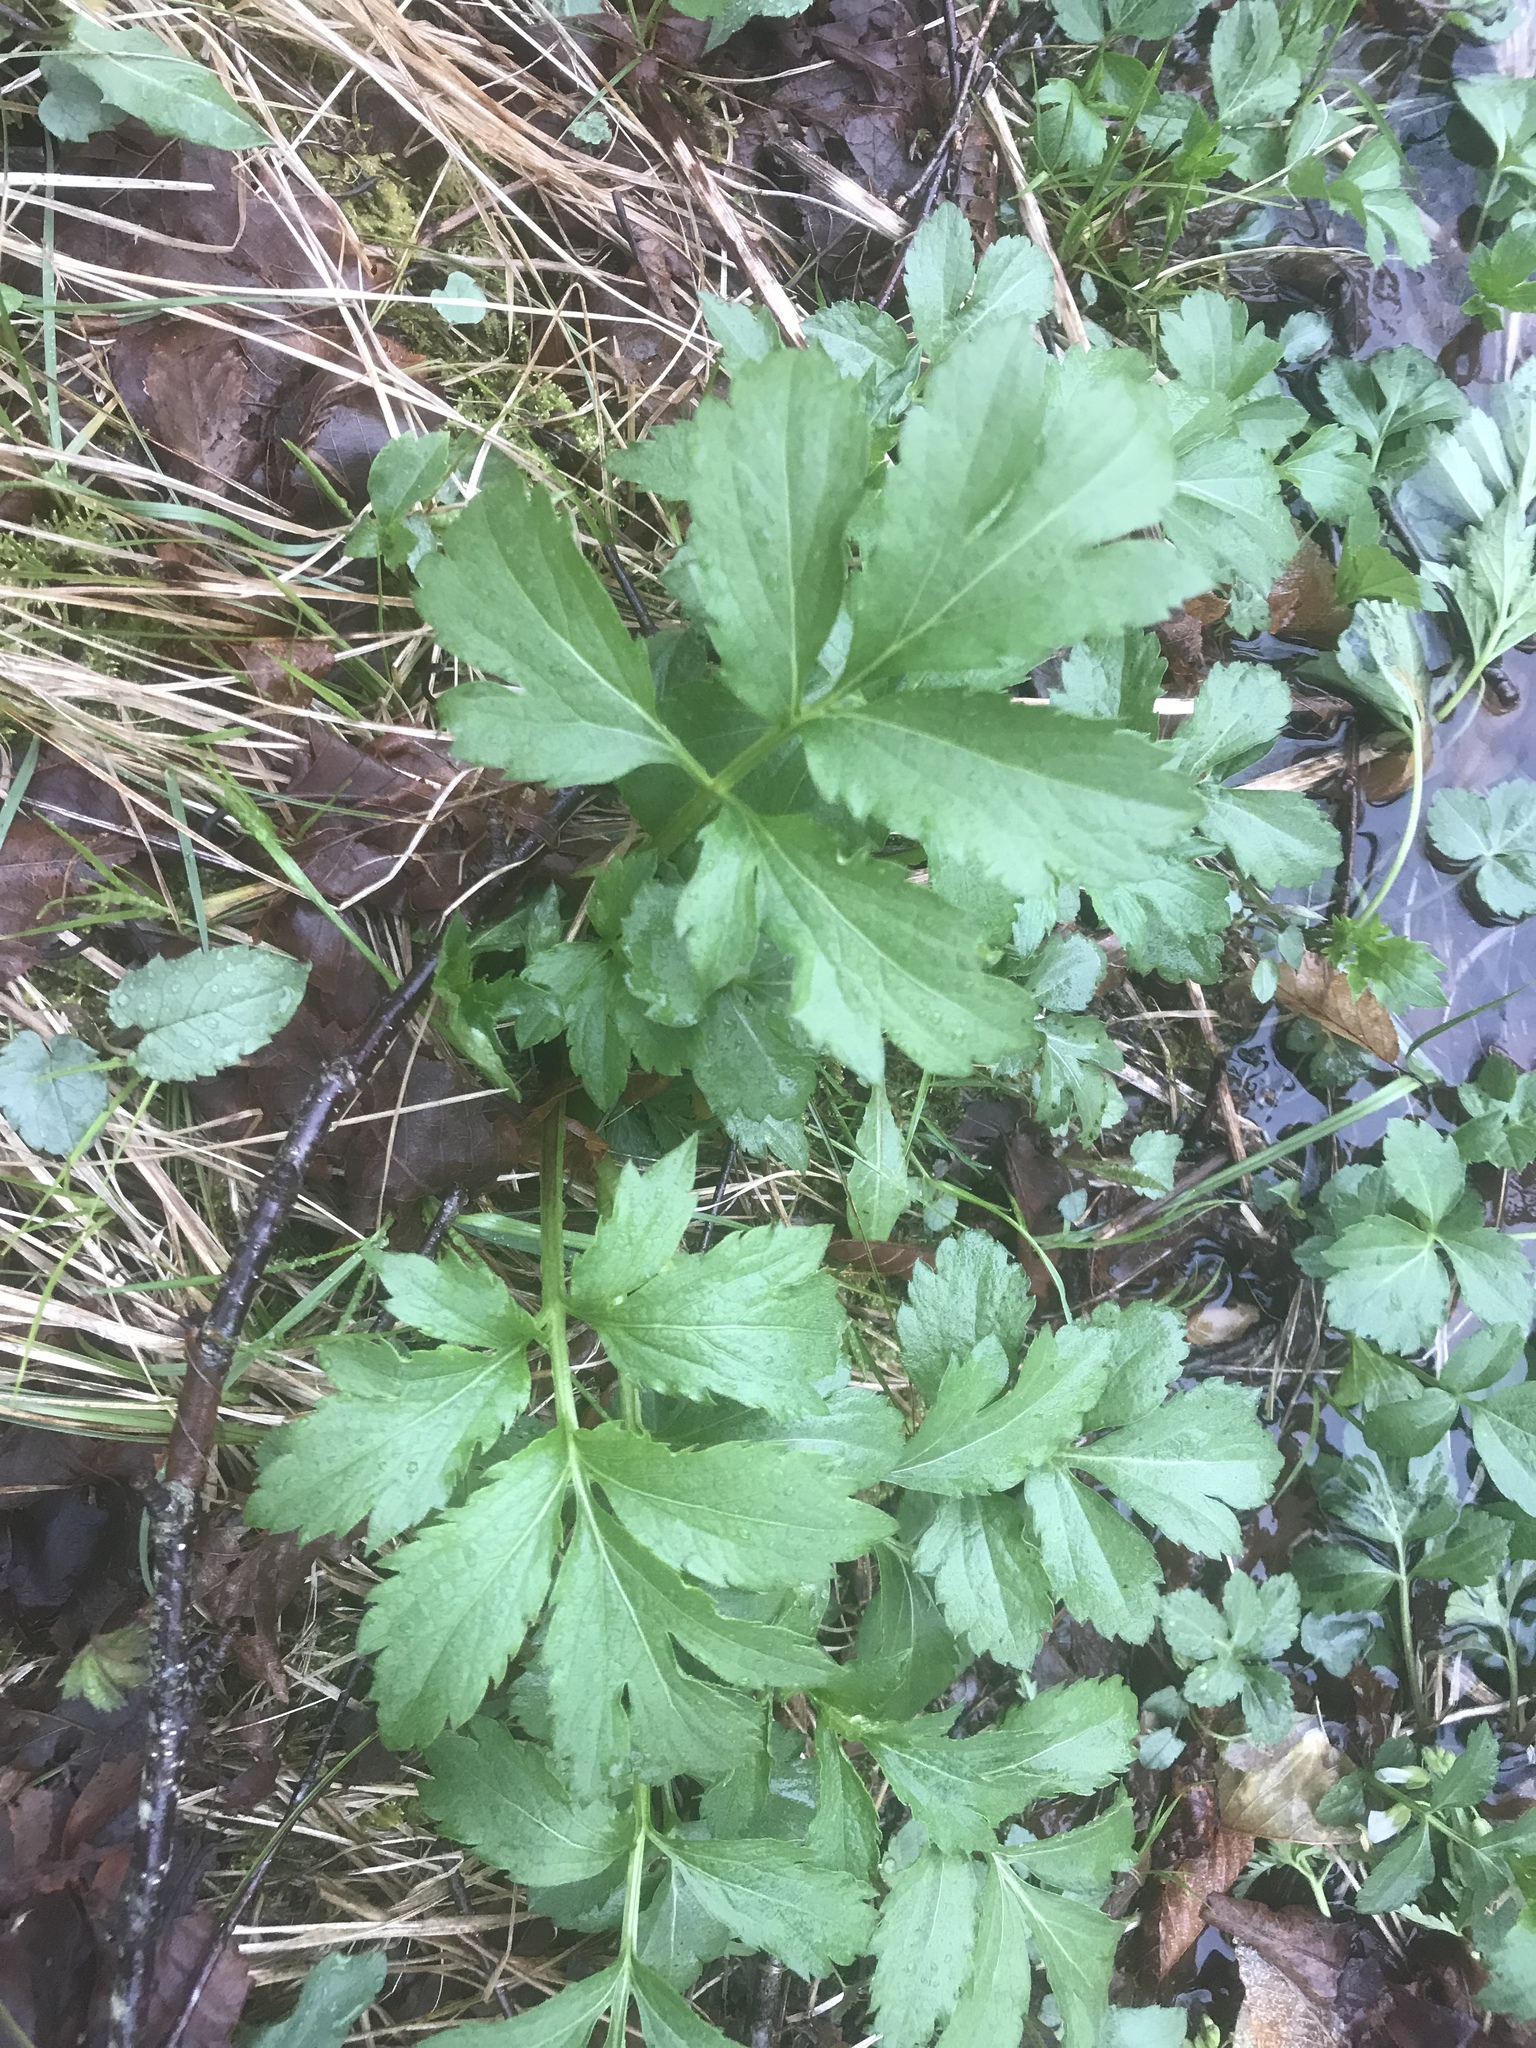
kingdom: Plantae
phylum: Tracheophyta
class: Magnoliopsida
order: Asterales
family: Asteraceae
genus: Rudbeckia
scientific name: Rudbeckia laciniata
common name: Coneflower
